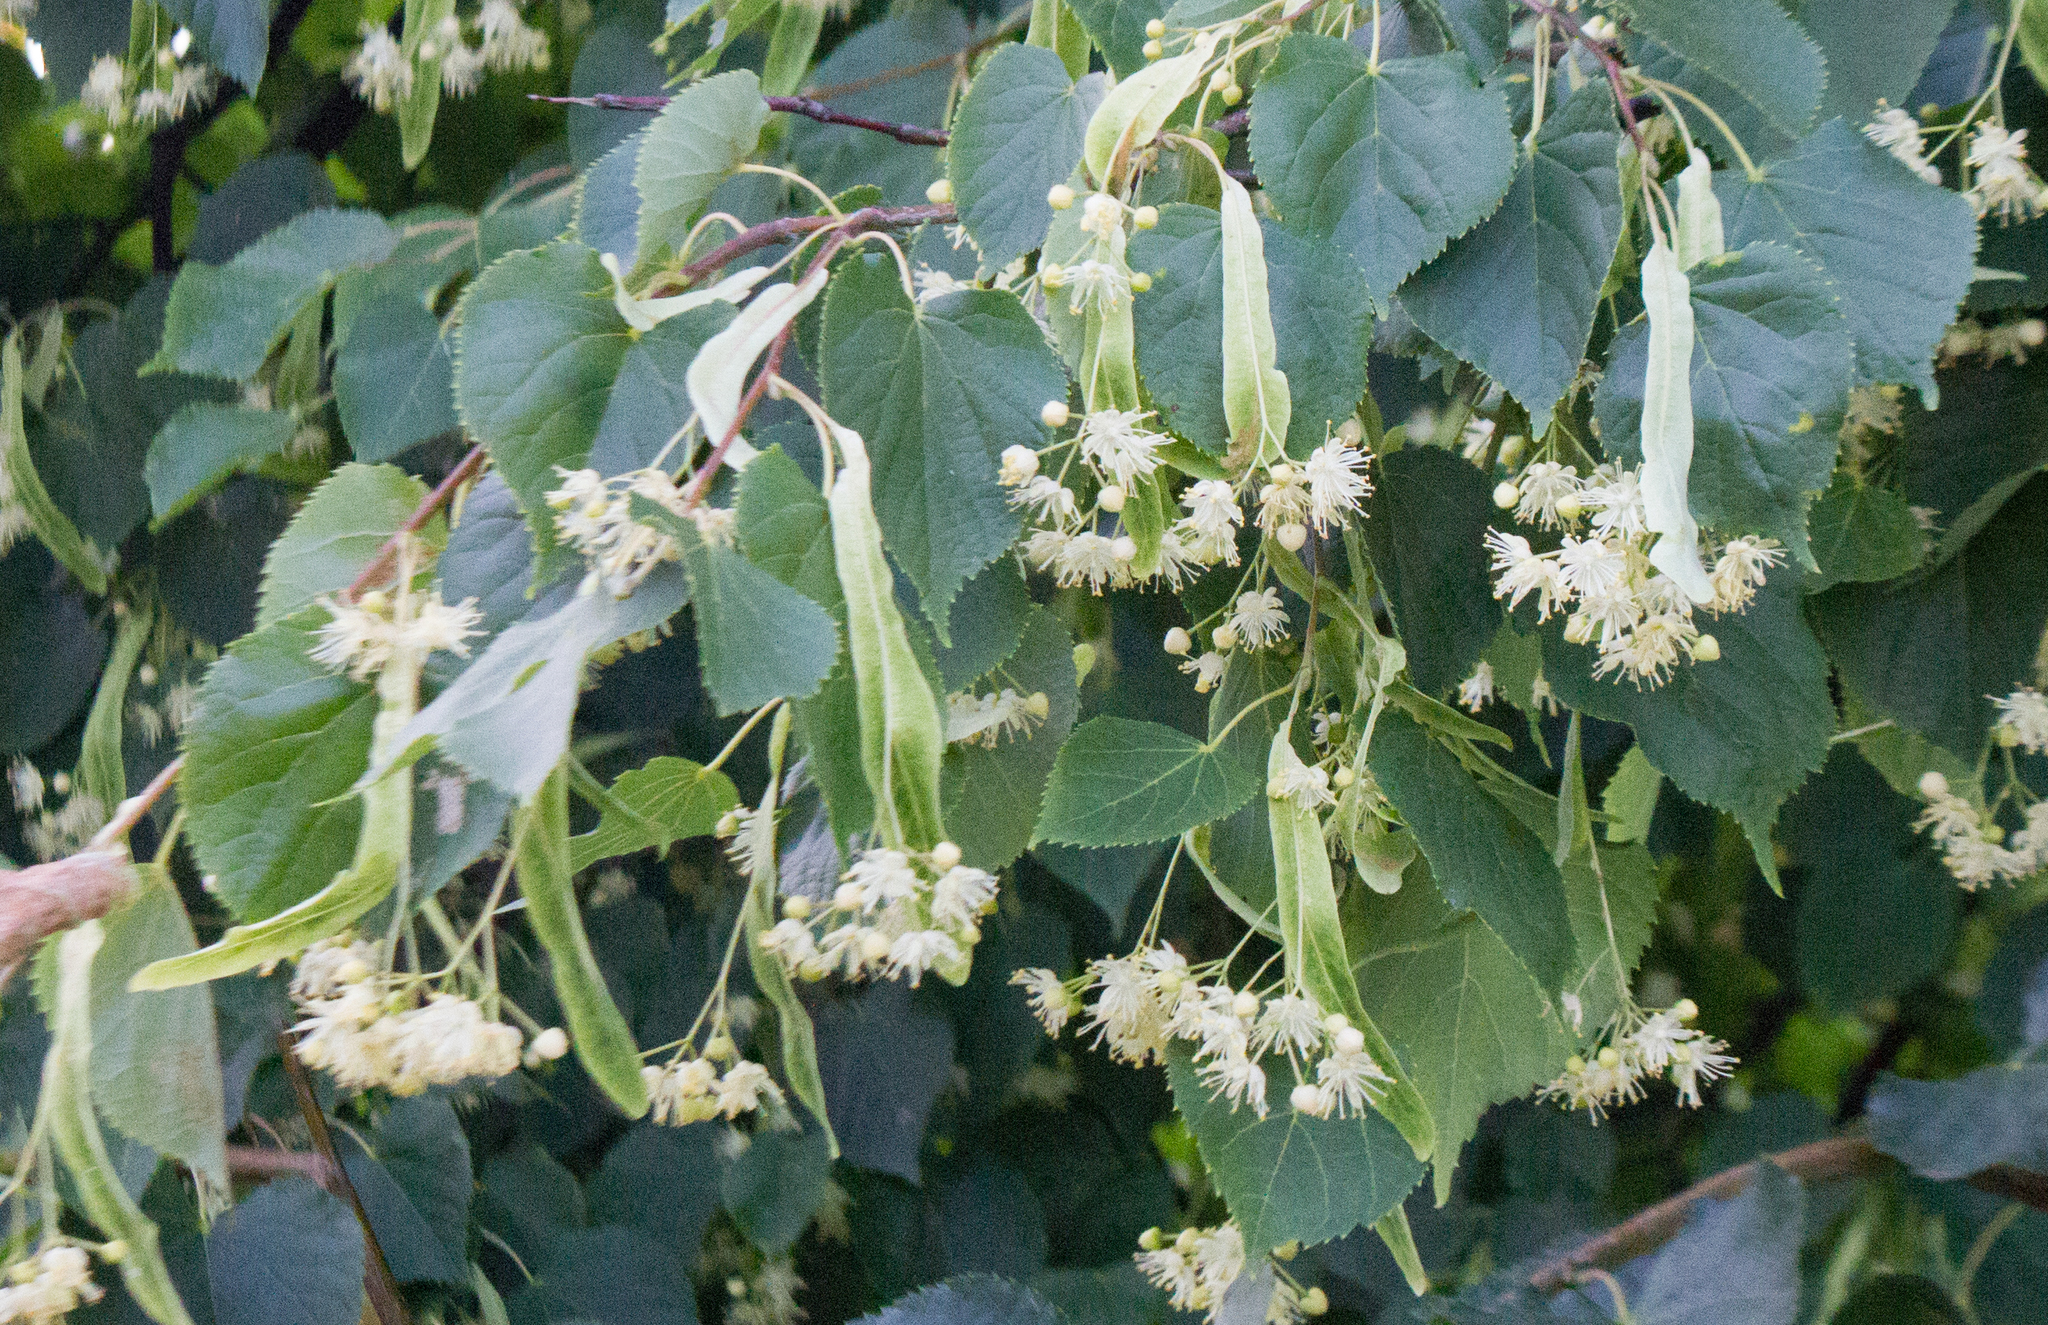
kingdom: Plantae
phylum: Tracheophyta
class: Magnoliopsida
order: Malvales
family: Malvaceae
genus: Tilia
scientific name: Tilia cordata
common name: Small-leaved lime
